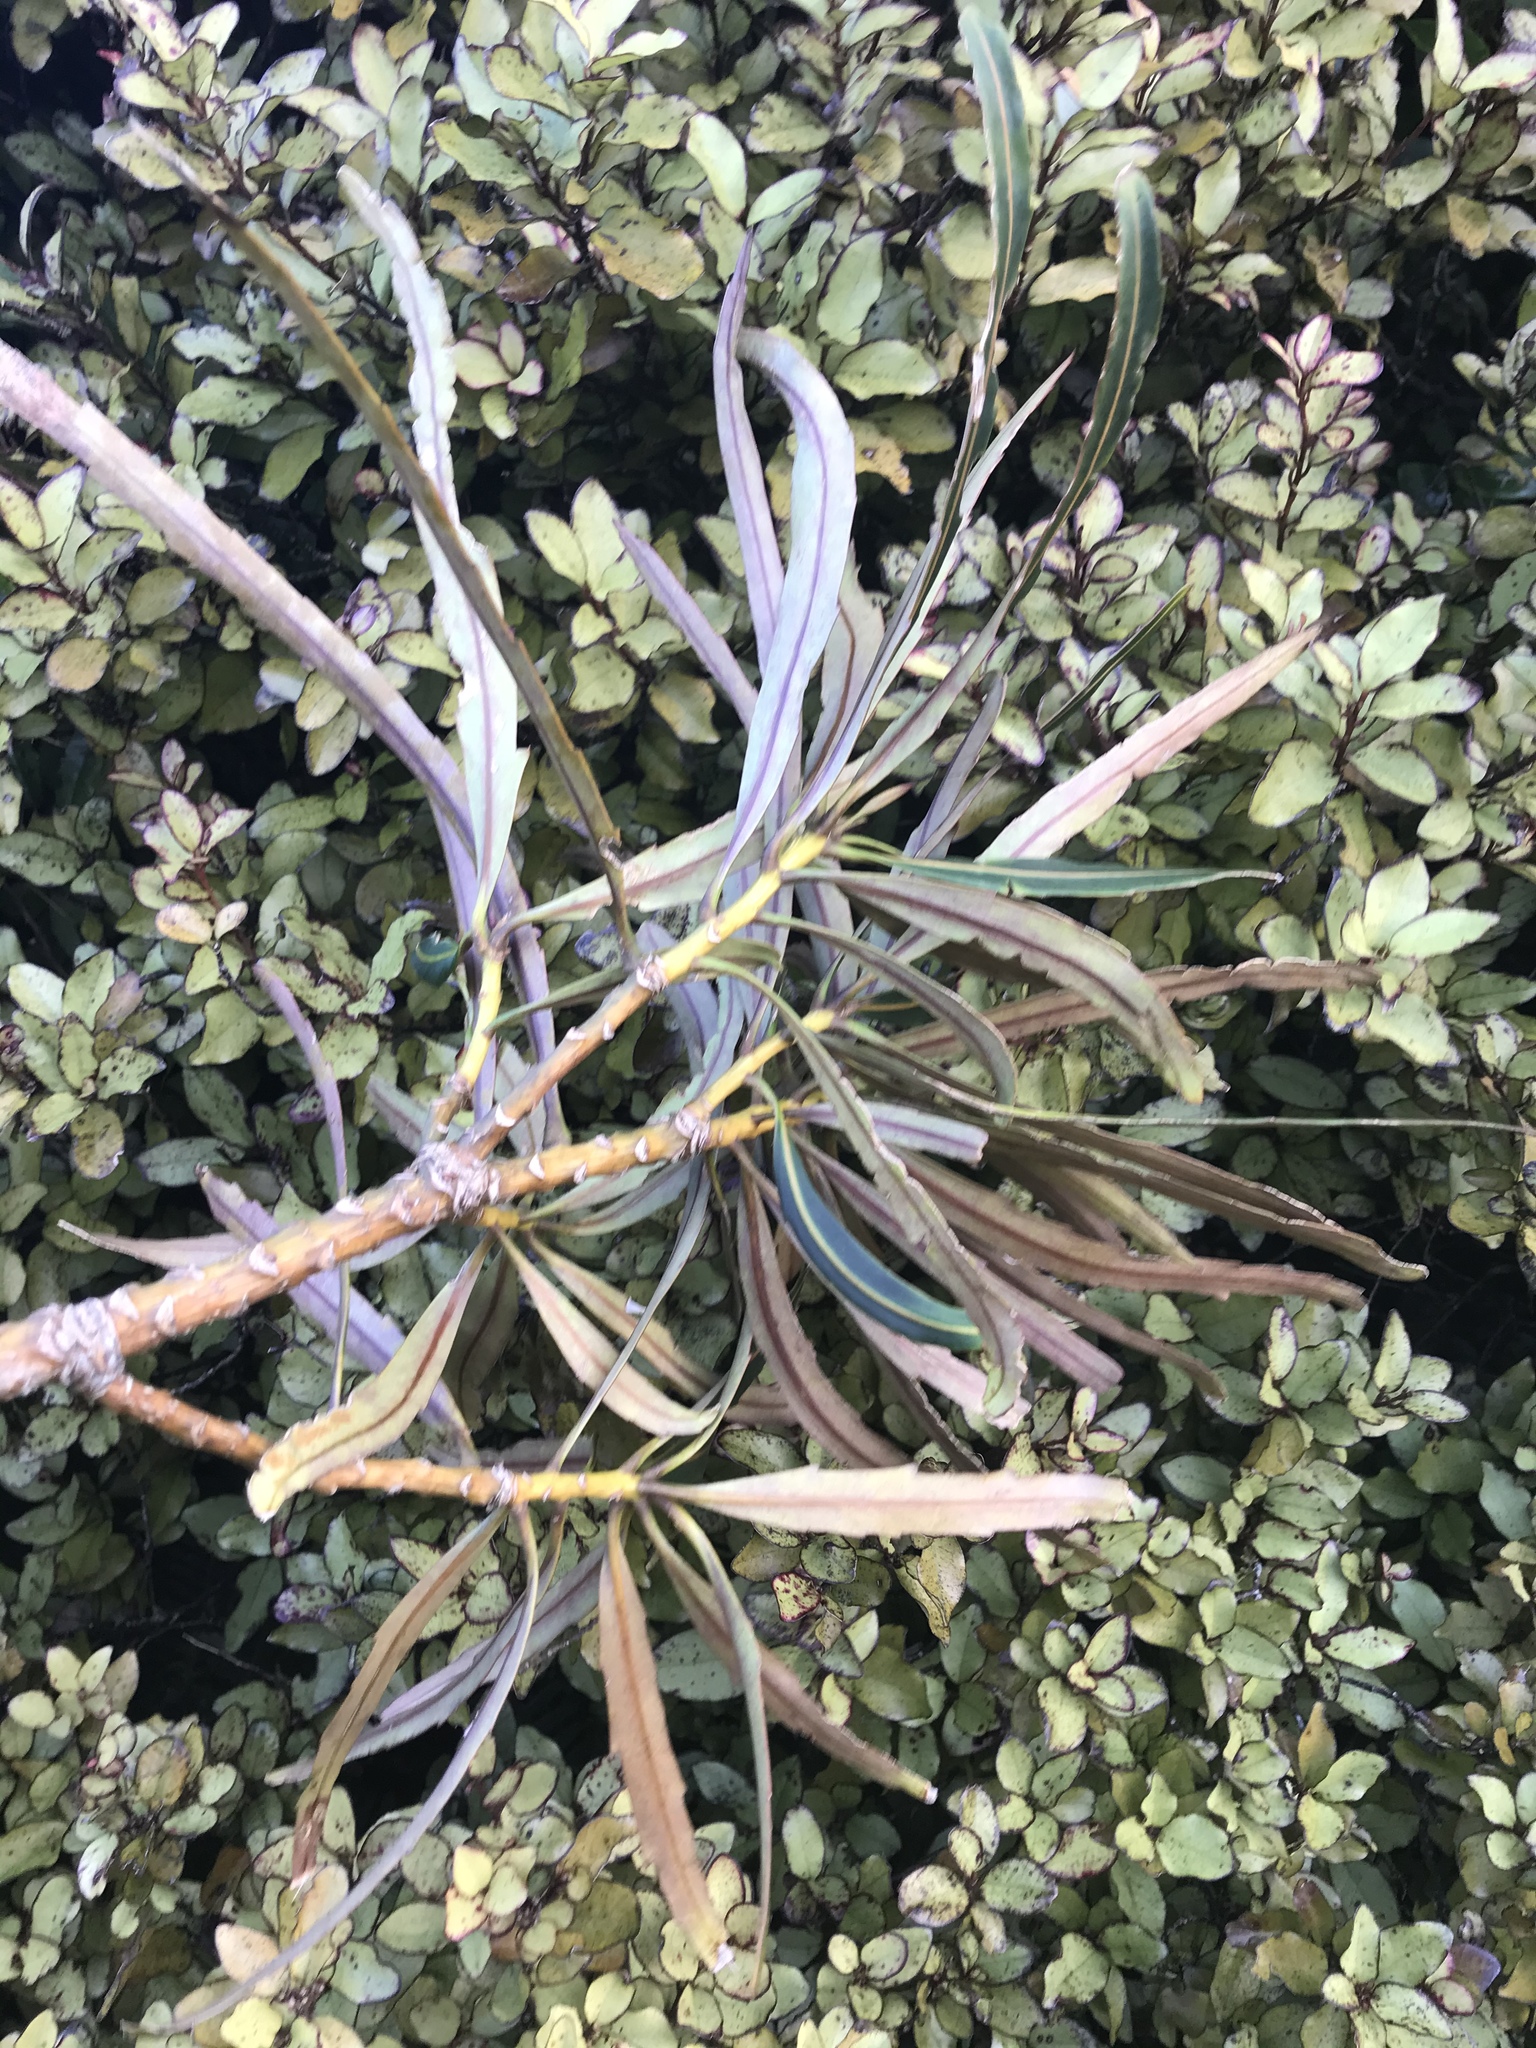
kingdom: Plantae
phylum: Tracheophyta
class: Magnoliopsida
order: Apiales
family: Araliaceae
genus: Pseudopanax
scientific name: Pseudopanax crassifolius
